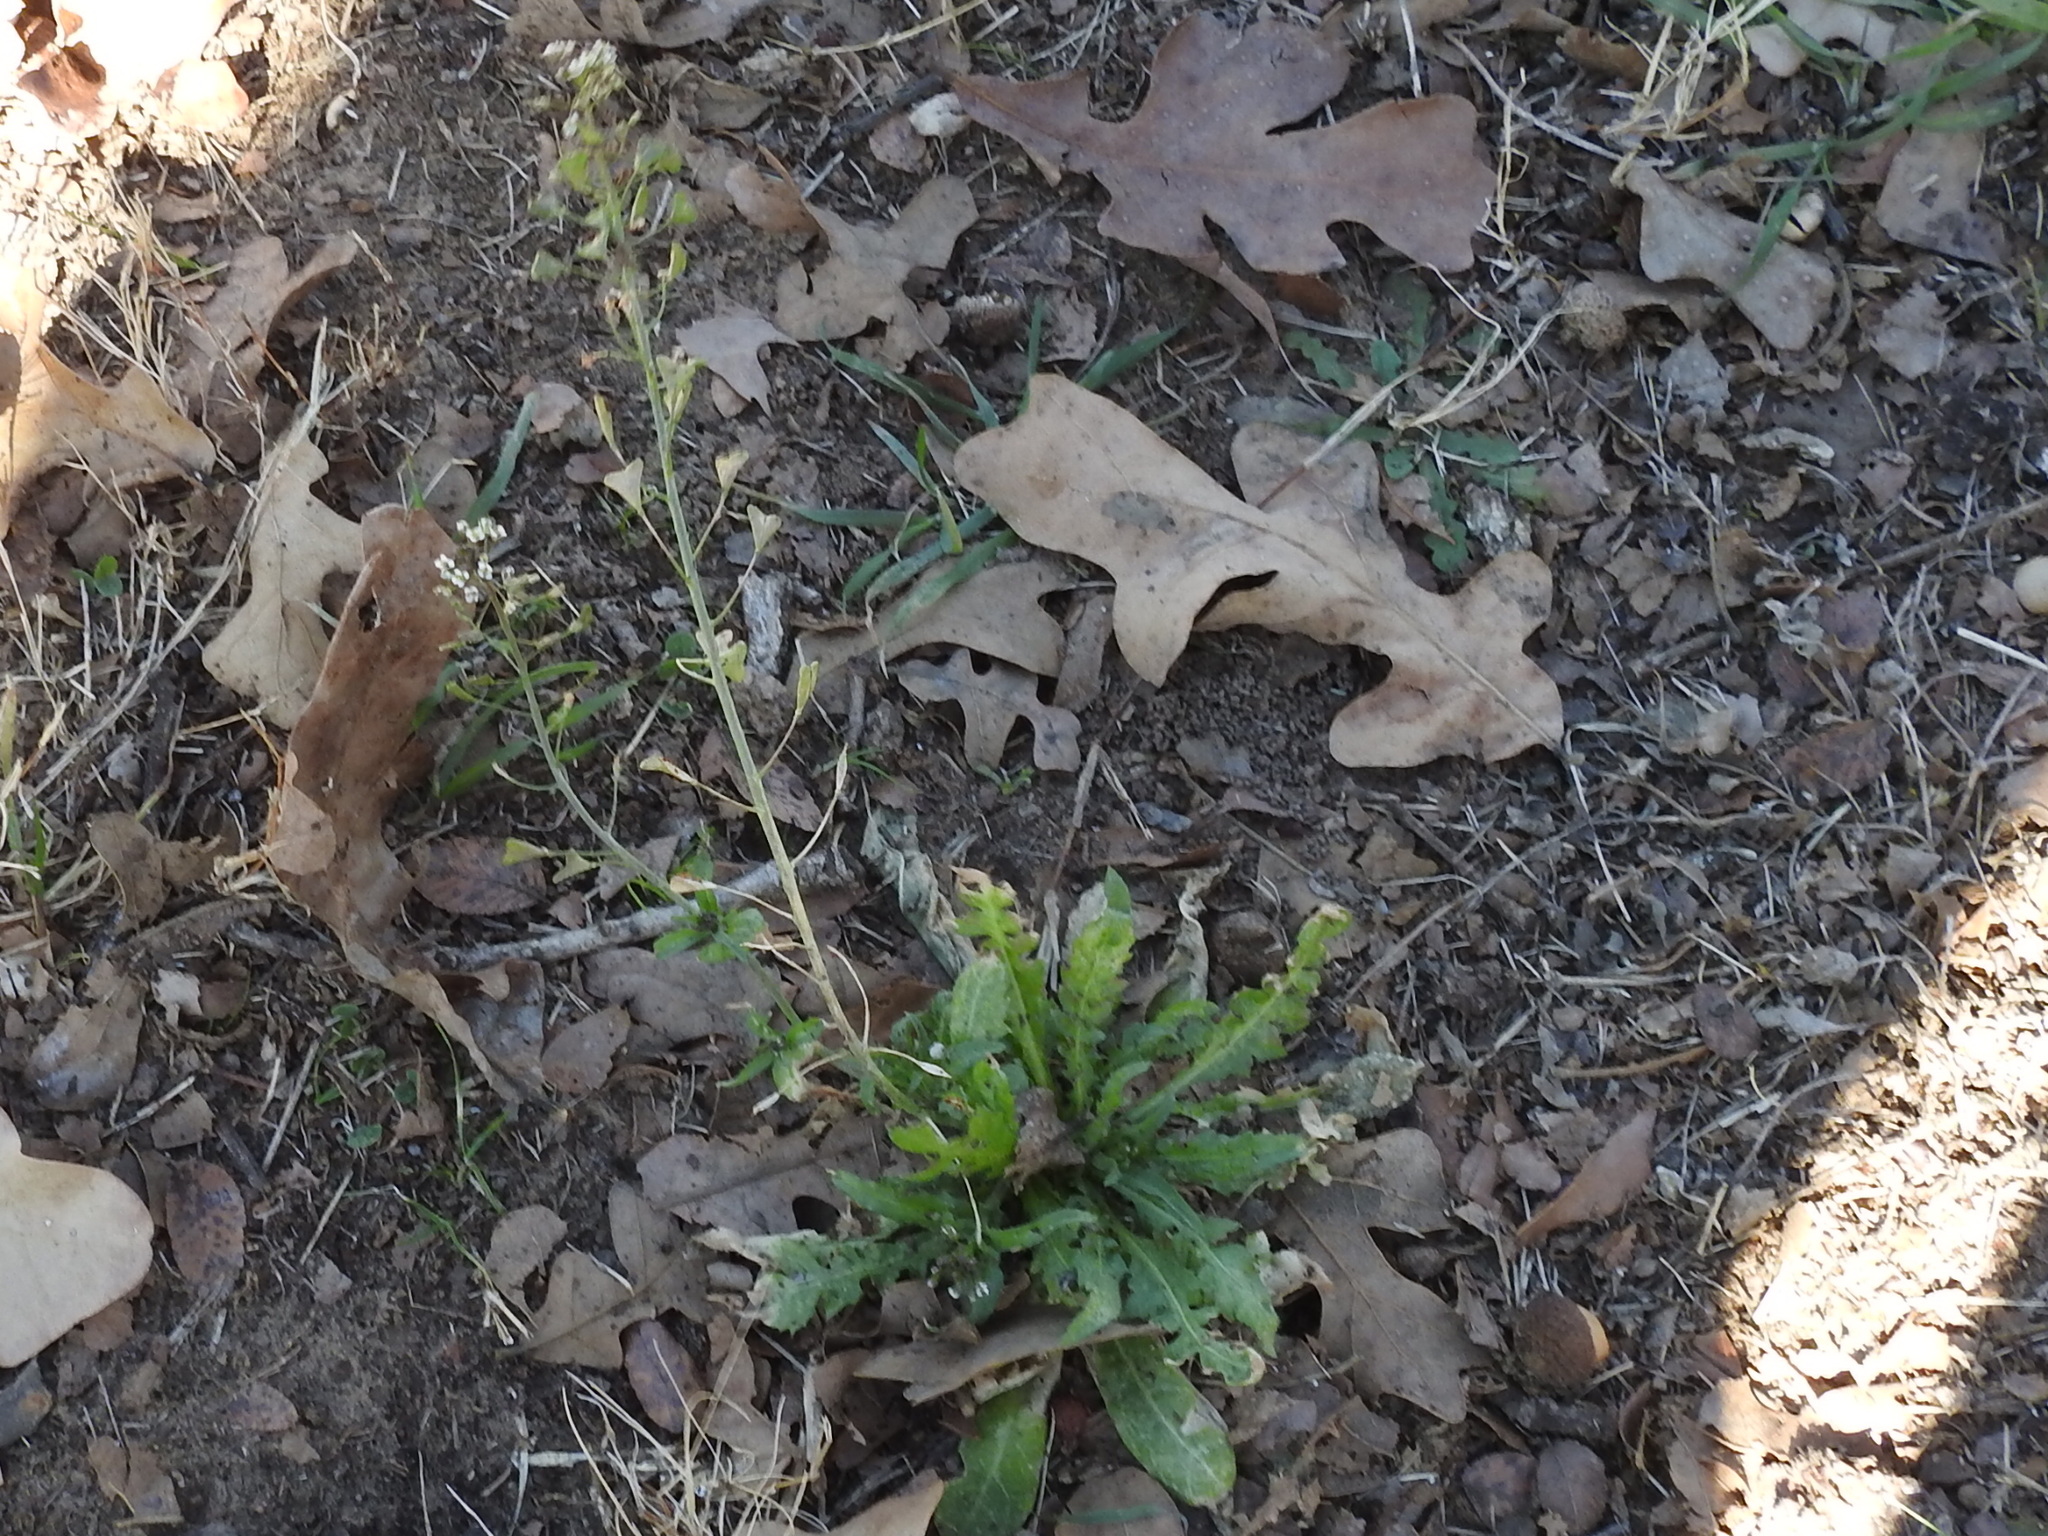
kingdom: Plantae
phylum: Tracheophyta
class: Magnoliopsida
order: Brassicales
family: Brassicaceae
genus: Capsella
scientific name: Capsella bursa-pastoris
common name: Shepherd's purse
